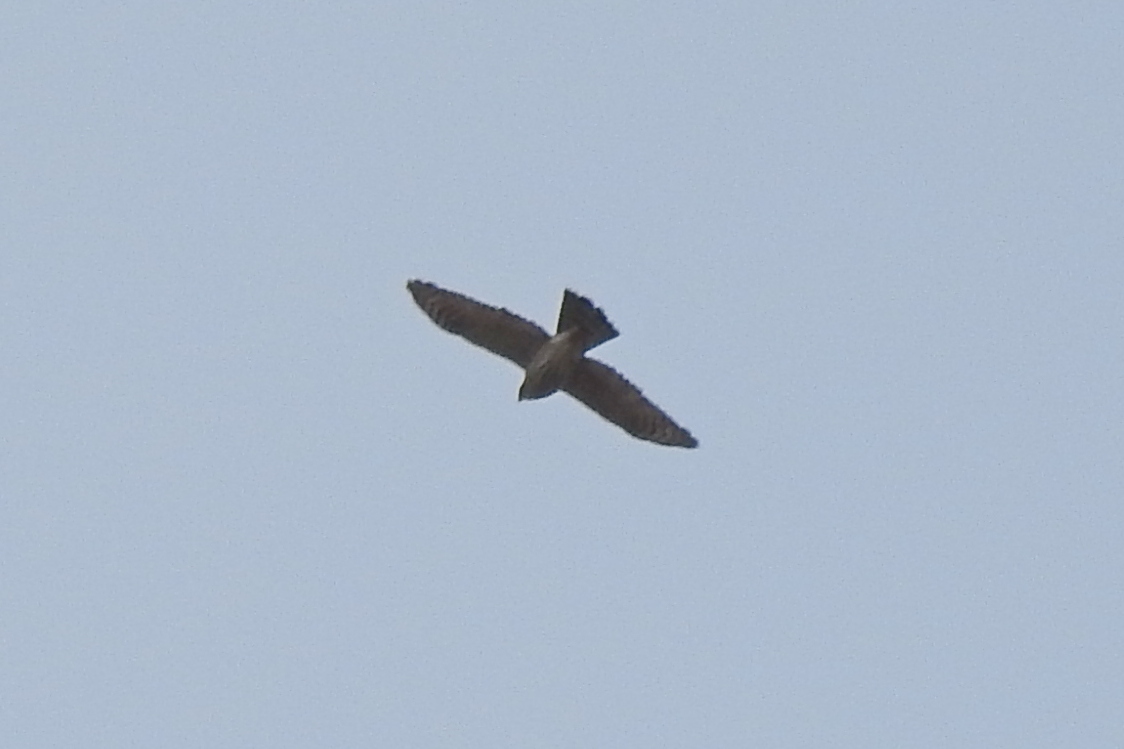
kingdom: Animalia
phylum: Chordata
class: Aves
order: Accipitriformes
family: Accipitridae
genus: Accipiter
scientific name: Accipiter cooperii
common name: Cooper's hawk
